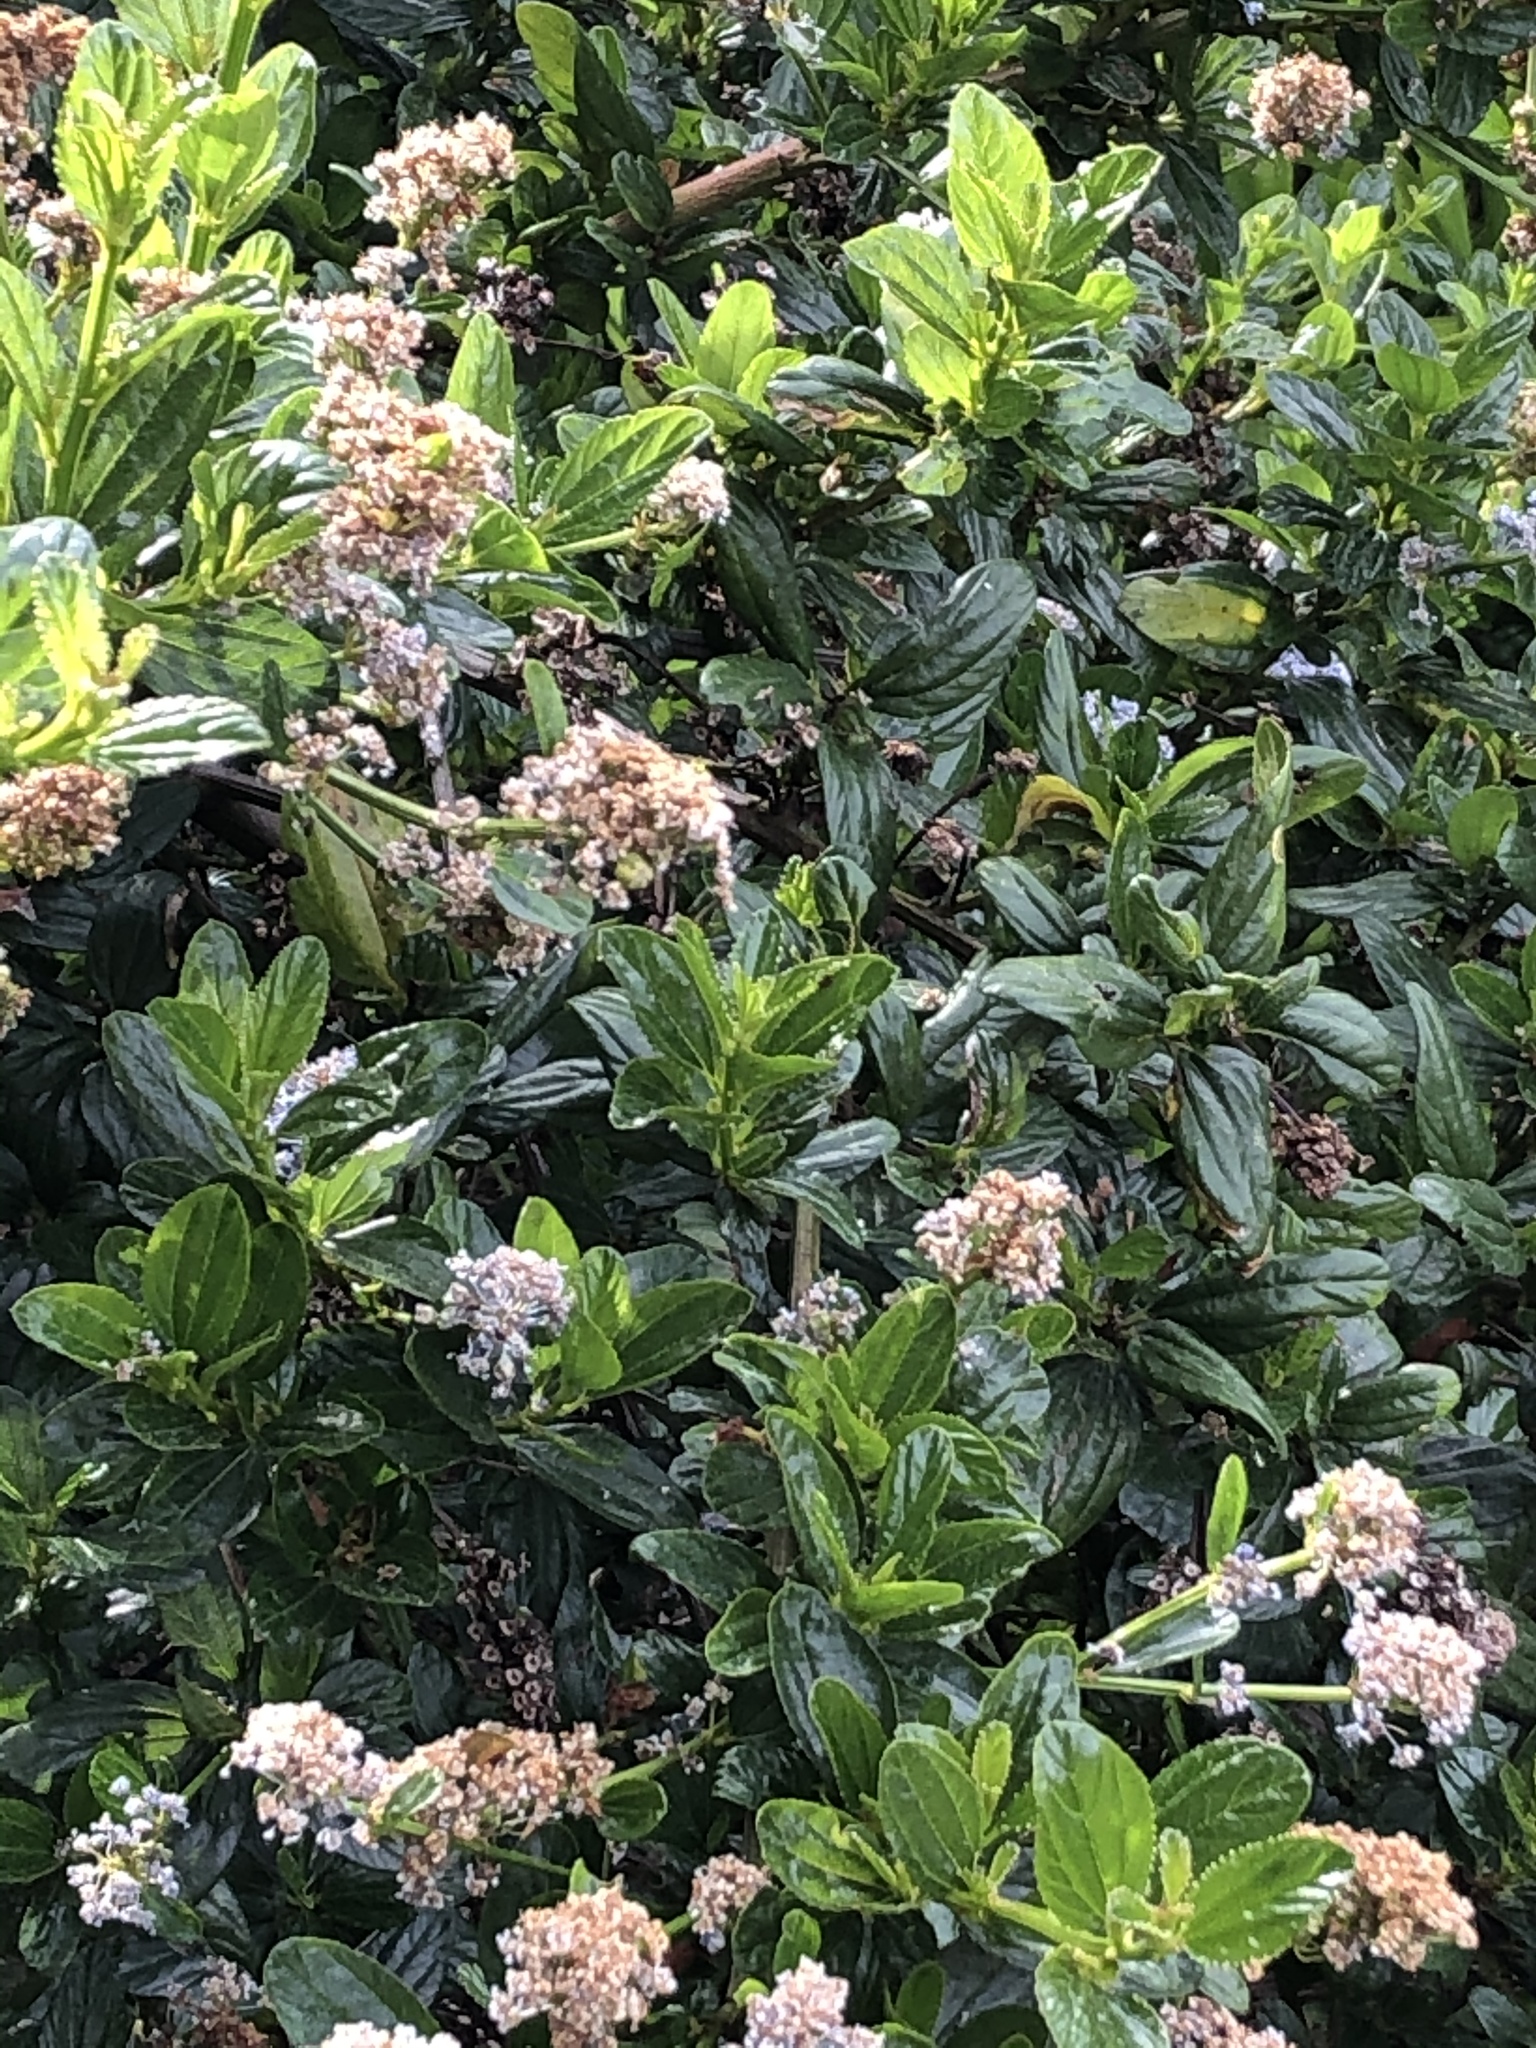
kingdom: Plantae
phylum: Tracheophyta
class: Magnoliopsida
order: Rosales
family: Rhamnaceae
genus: Ceanothus
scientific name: Ceanothus thyrsiflorus
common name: California-lilac
